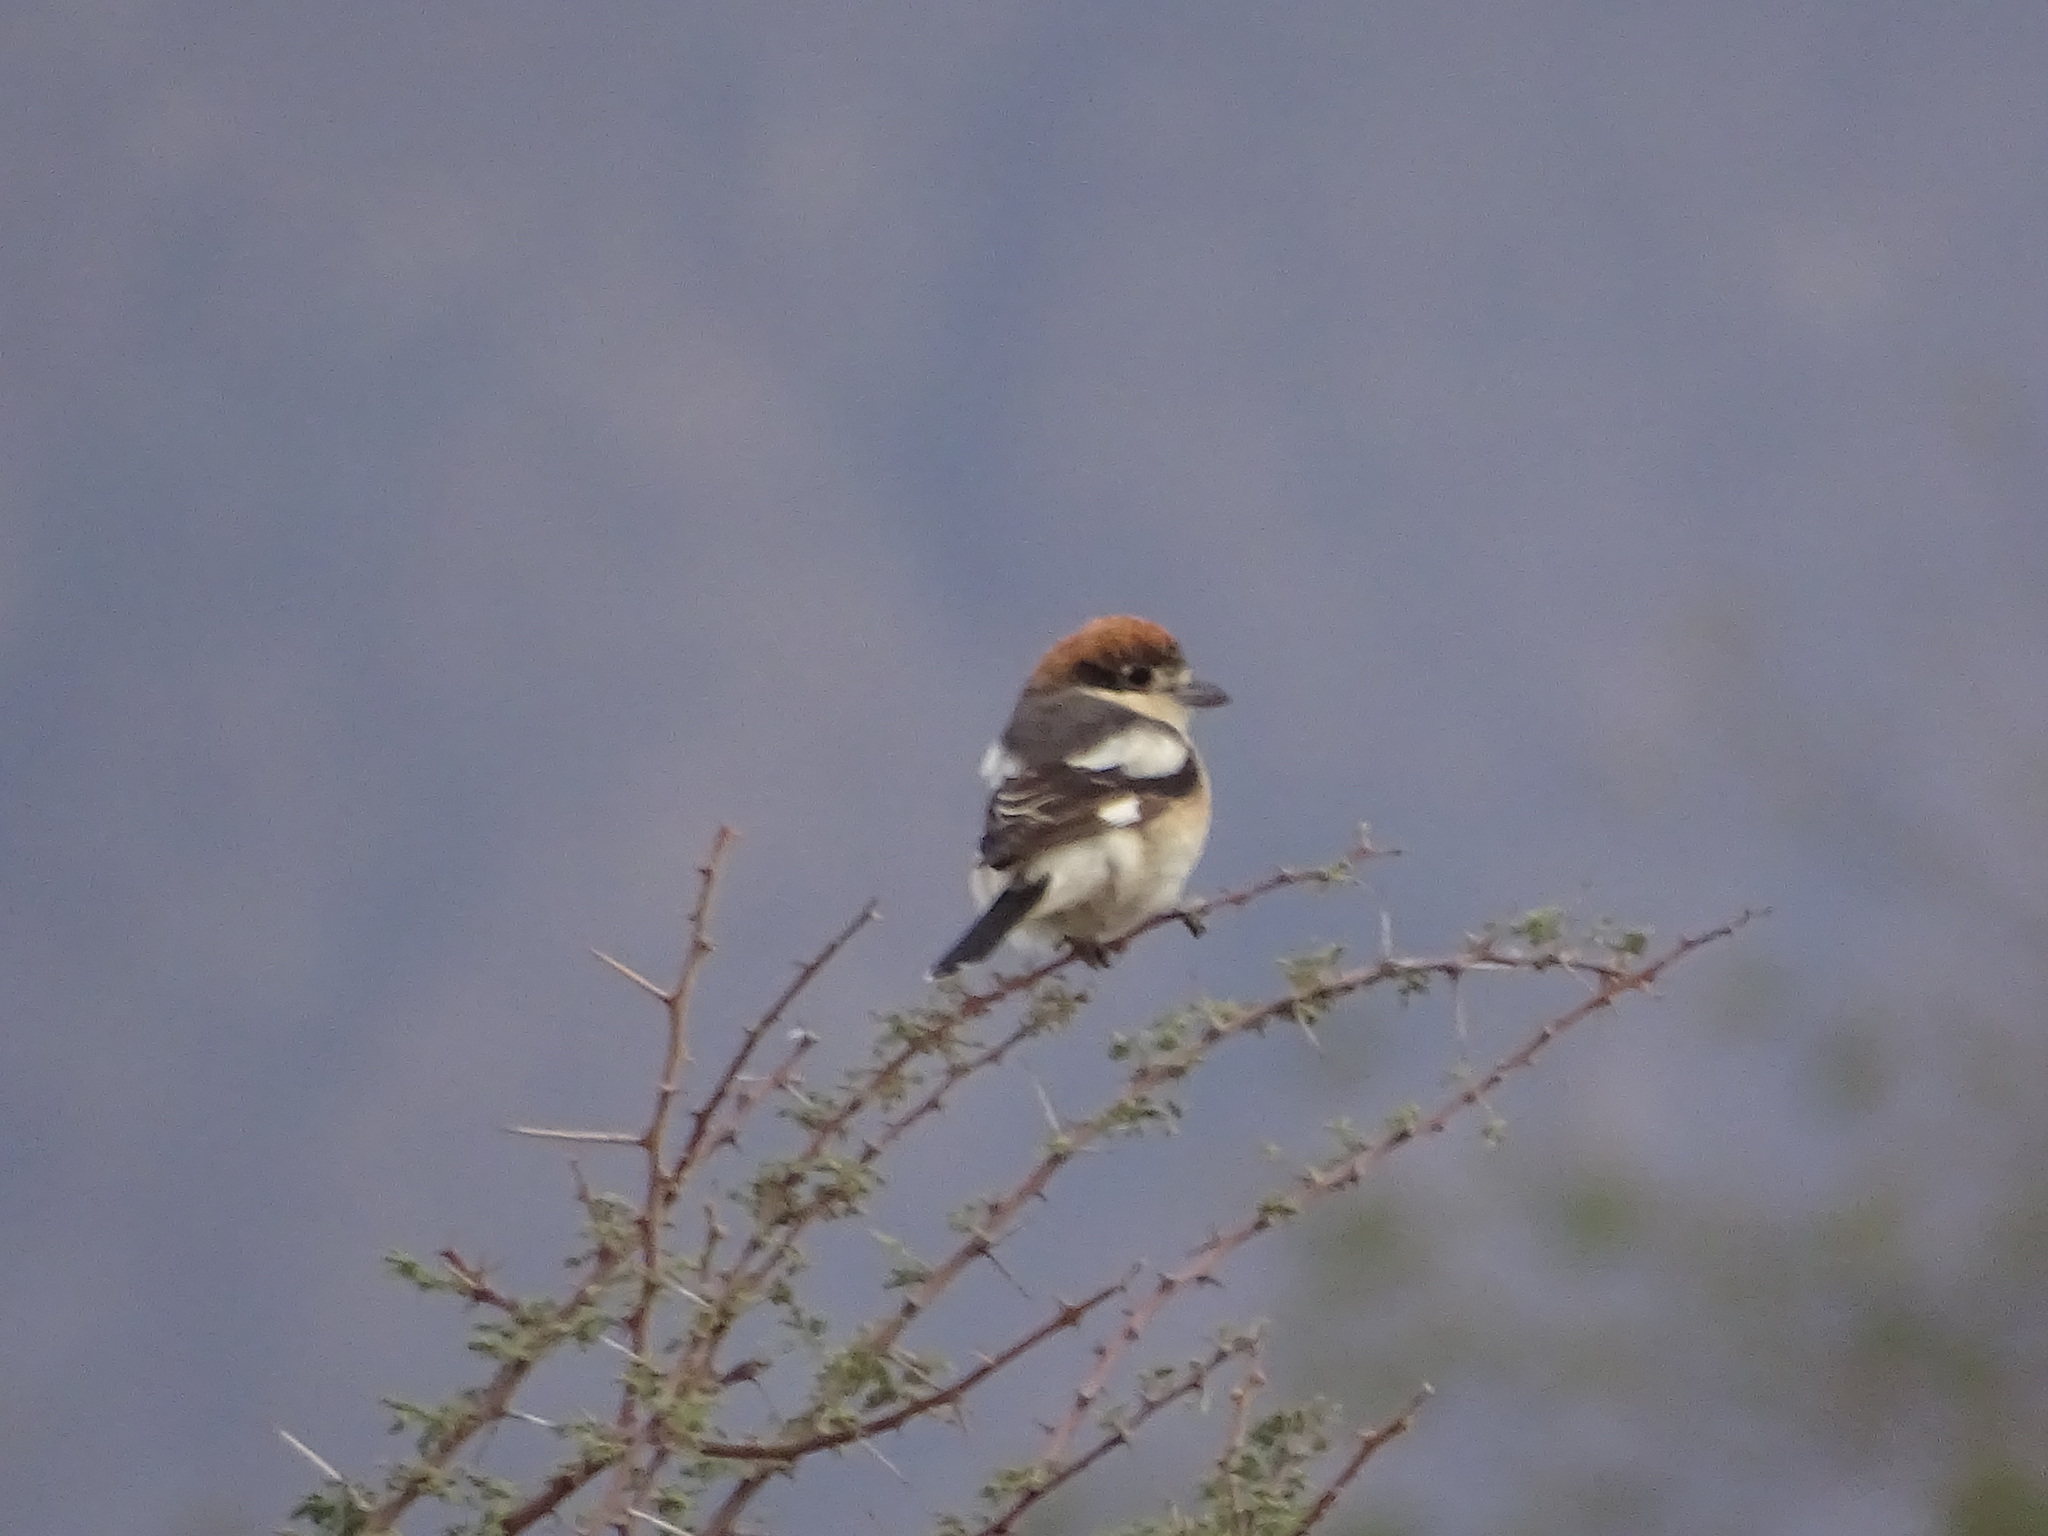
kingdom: Animalia
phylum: Chordata
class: Aves
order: Passeriformes
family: Laniidae
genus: Lanius
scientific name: Lanius senator
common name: Woodchat shrike
